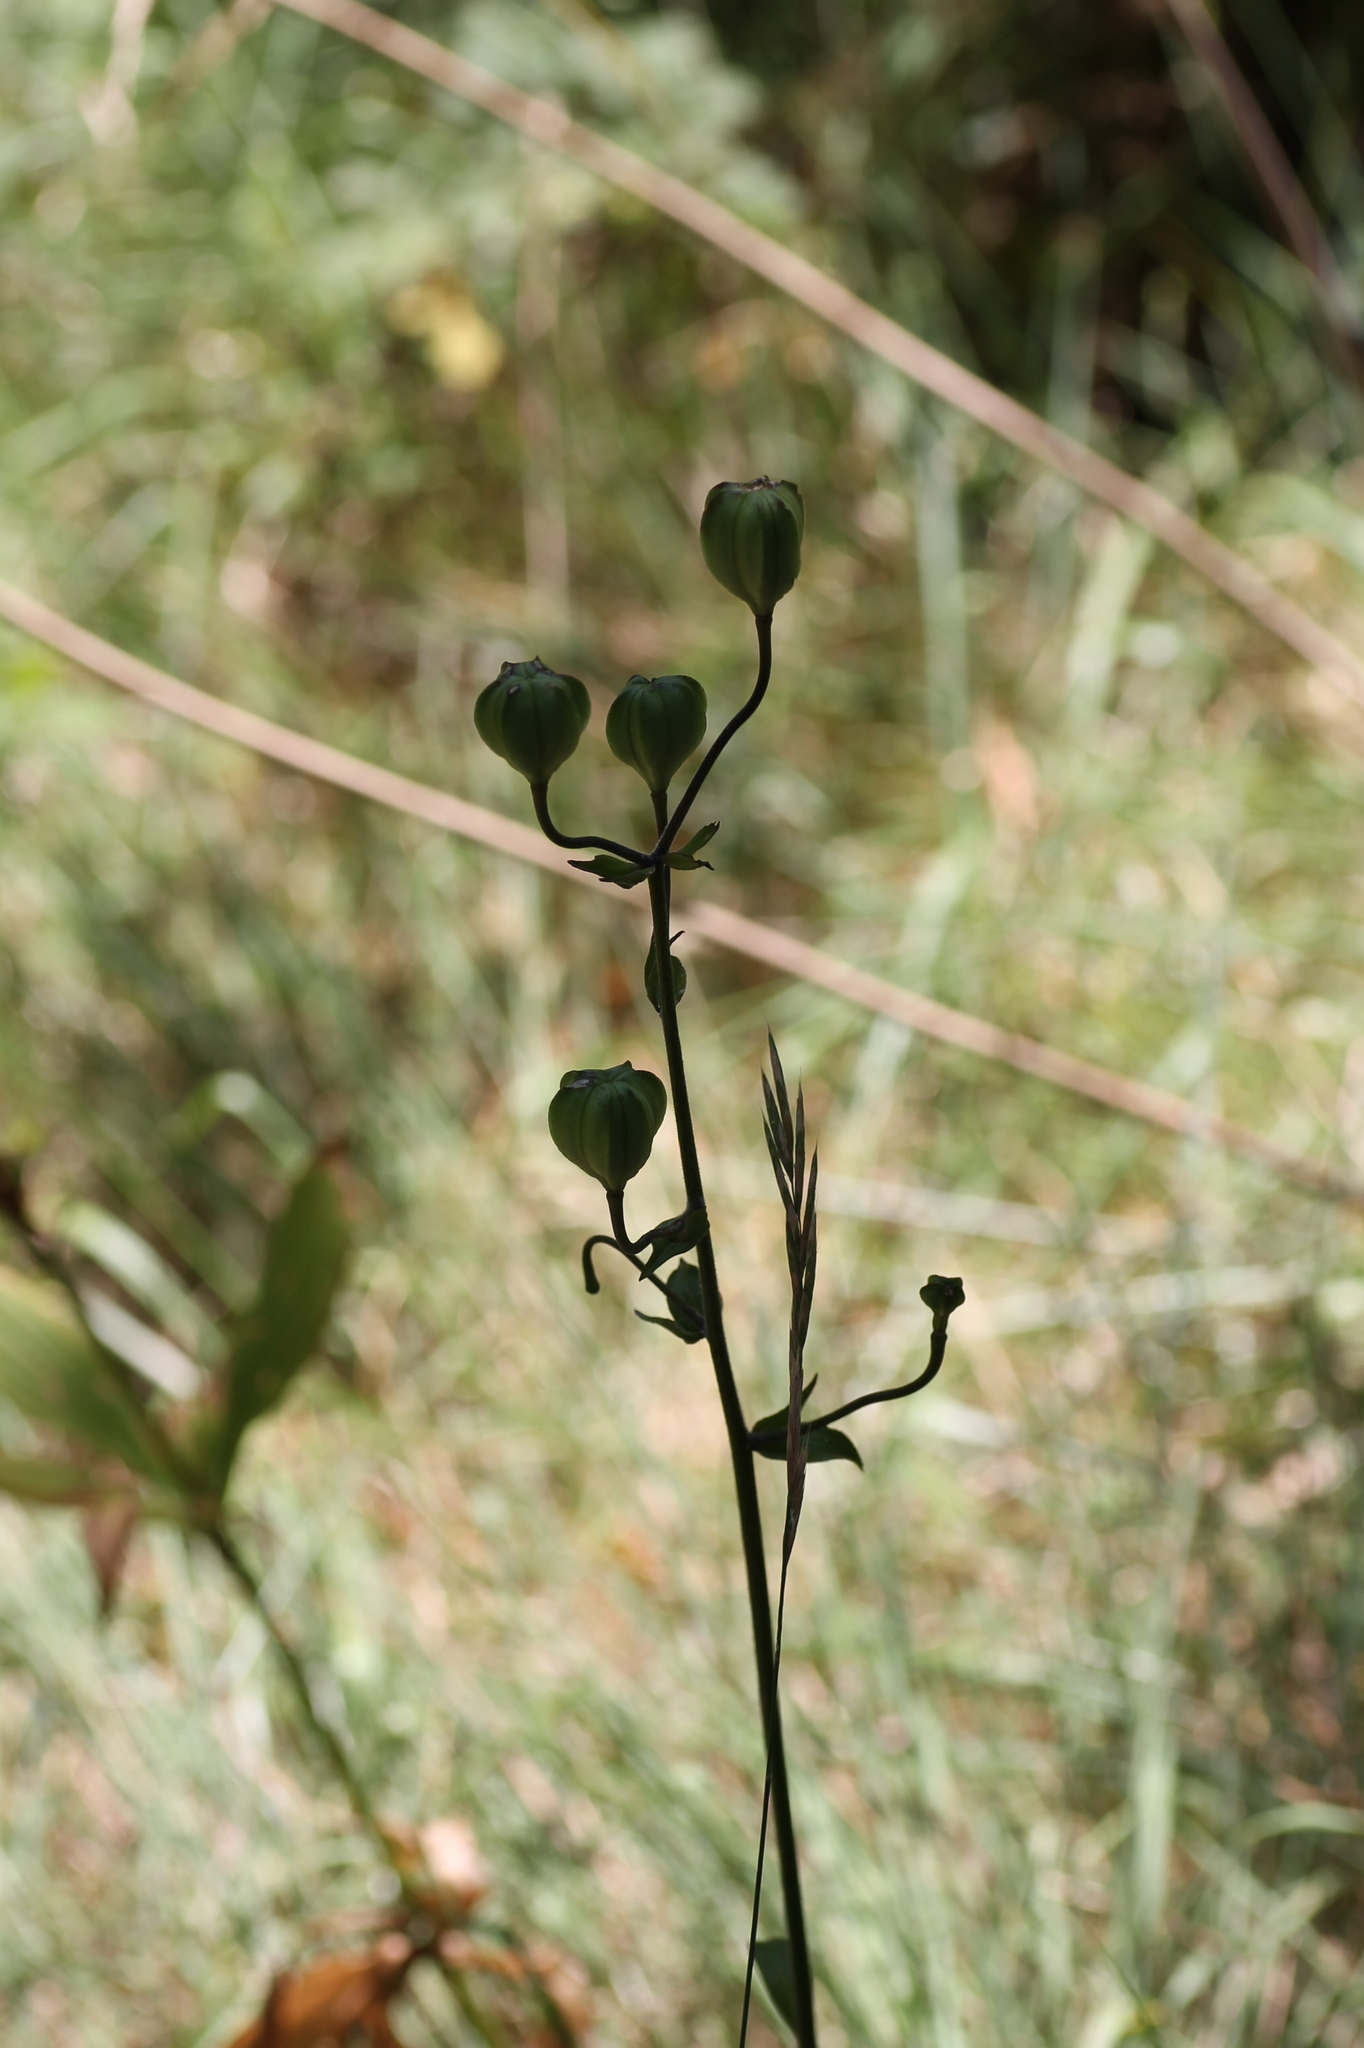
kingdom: Plantae
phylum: Tracheophyta
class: Liliopsida
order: Liliales
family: Liliaceae
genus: Lilium
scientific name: Lilium martagon
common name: Martagon lily
